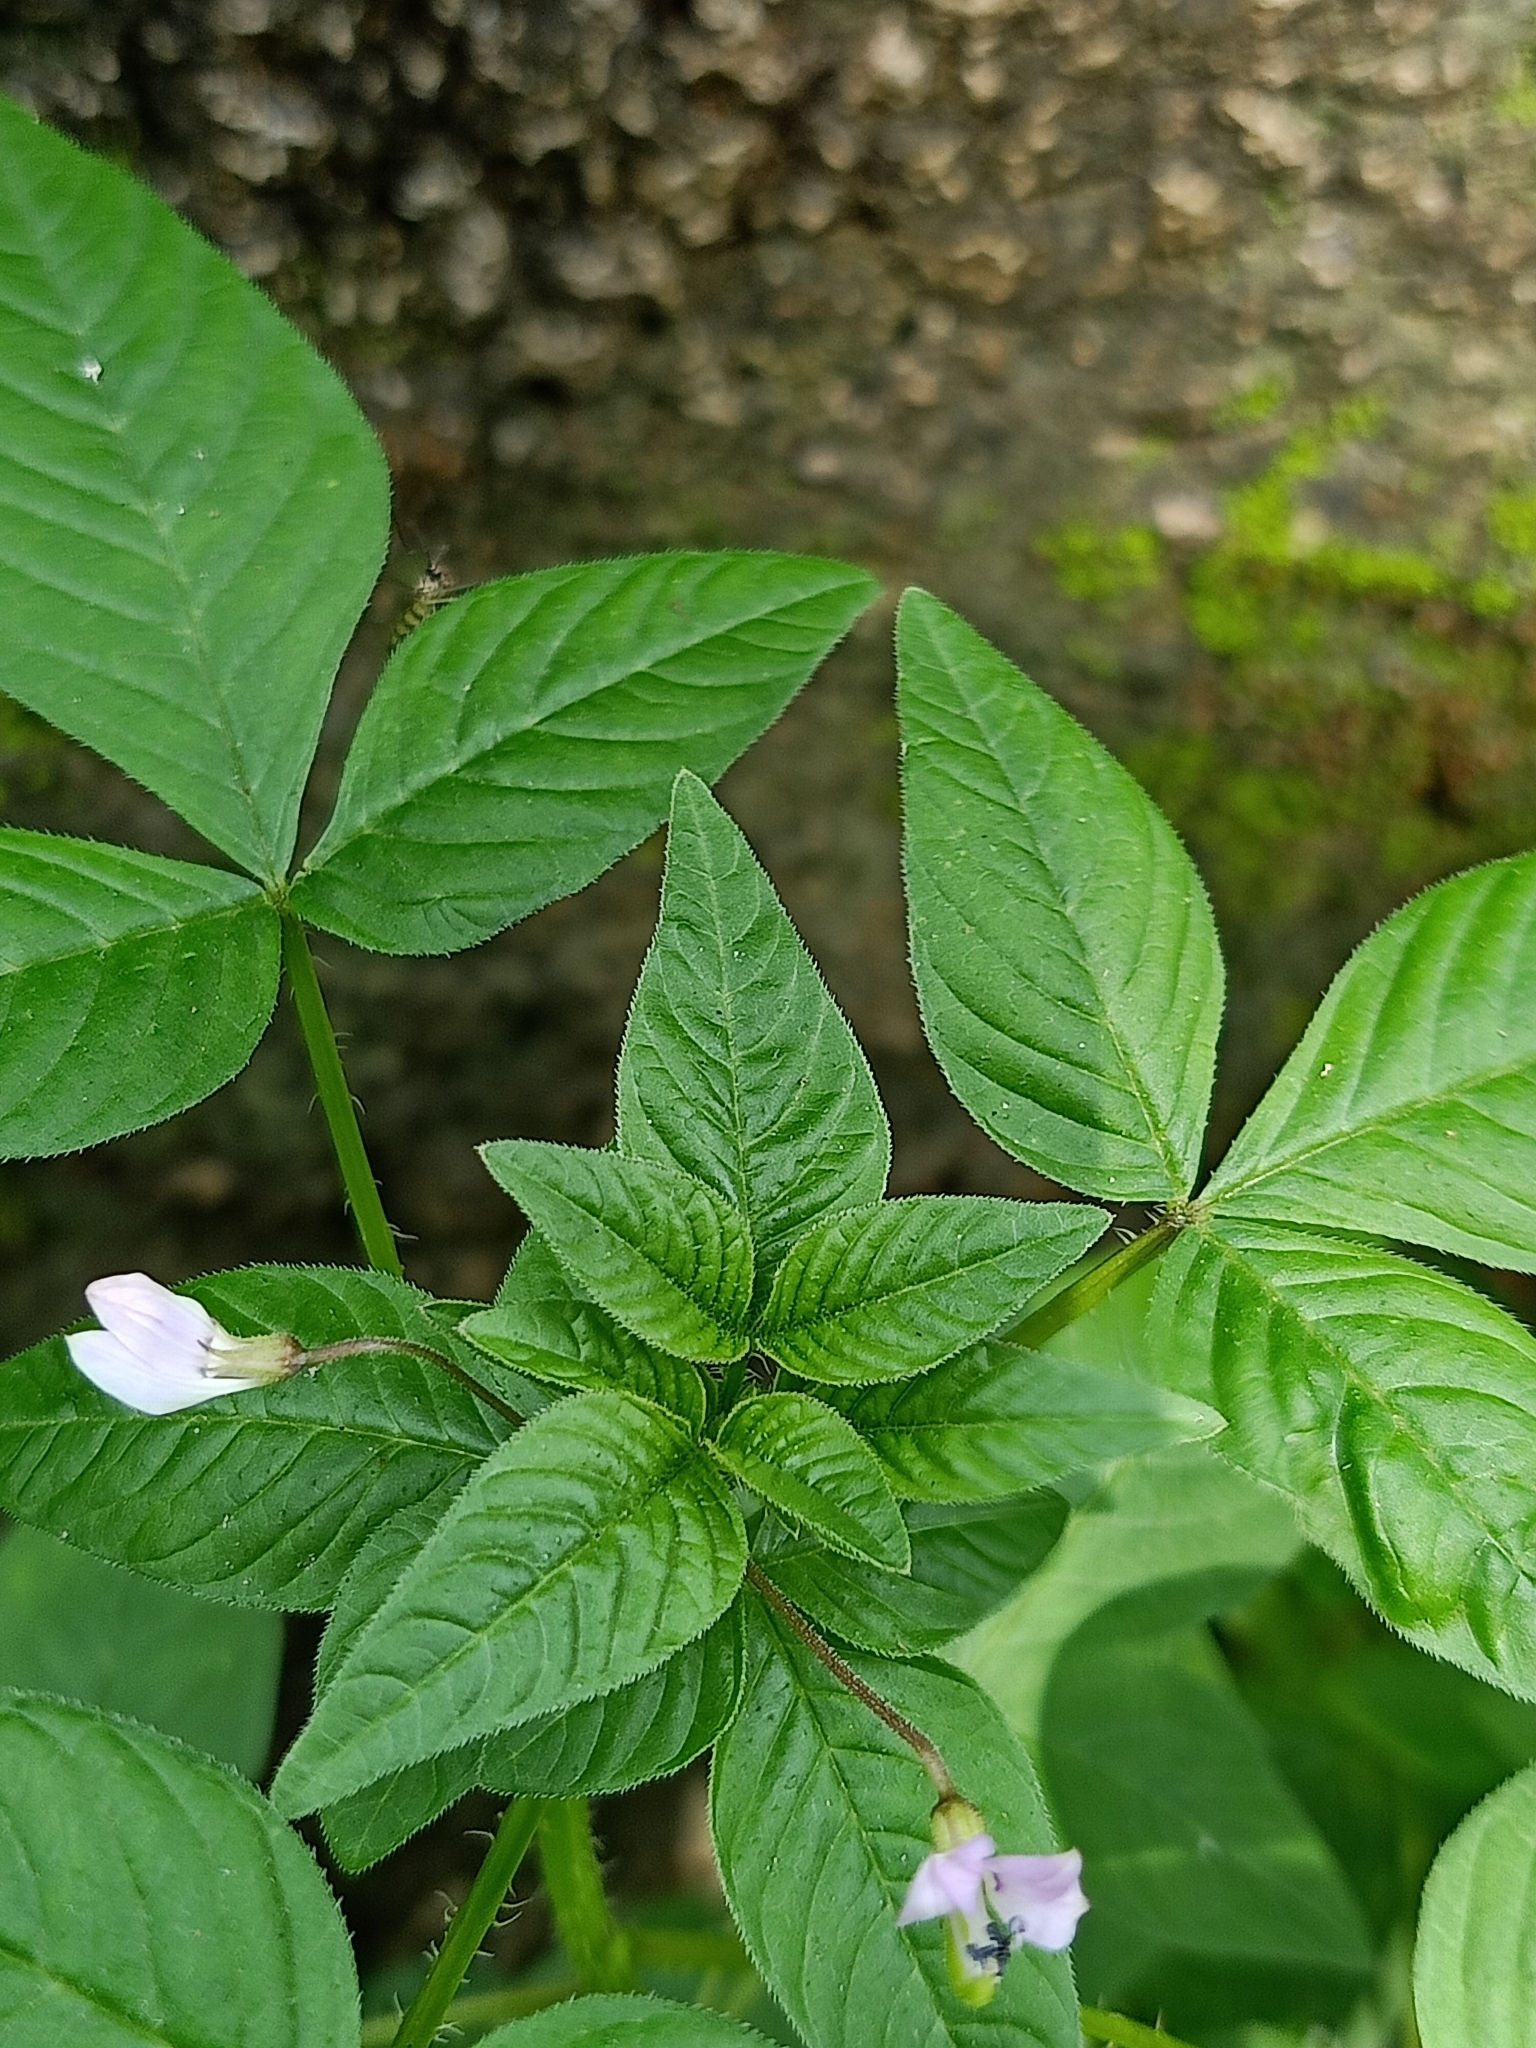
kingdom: Plantae
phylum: Tracheophyta
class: Magnoliopsida
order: Brassicales
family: Cleomaceae
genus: Sieruela
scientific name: Sieruela rutidosperma
